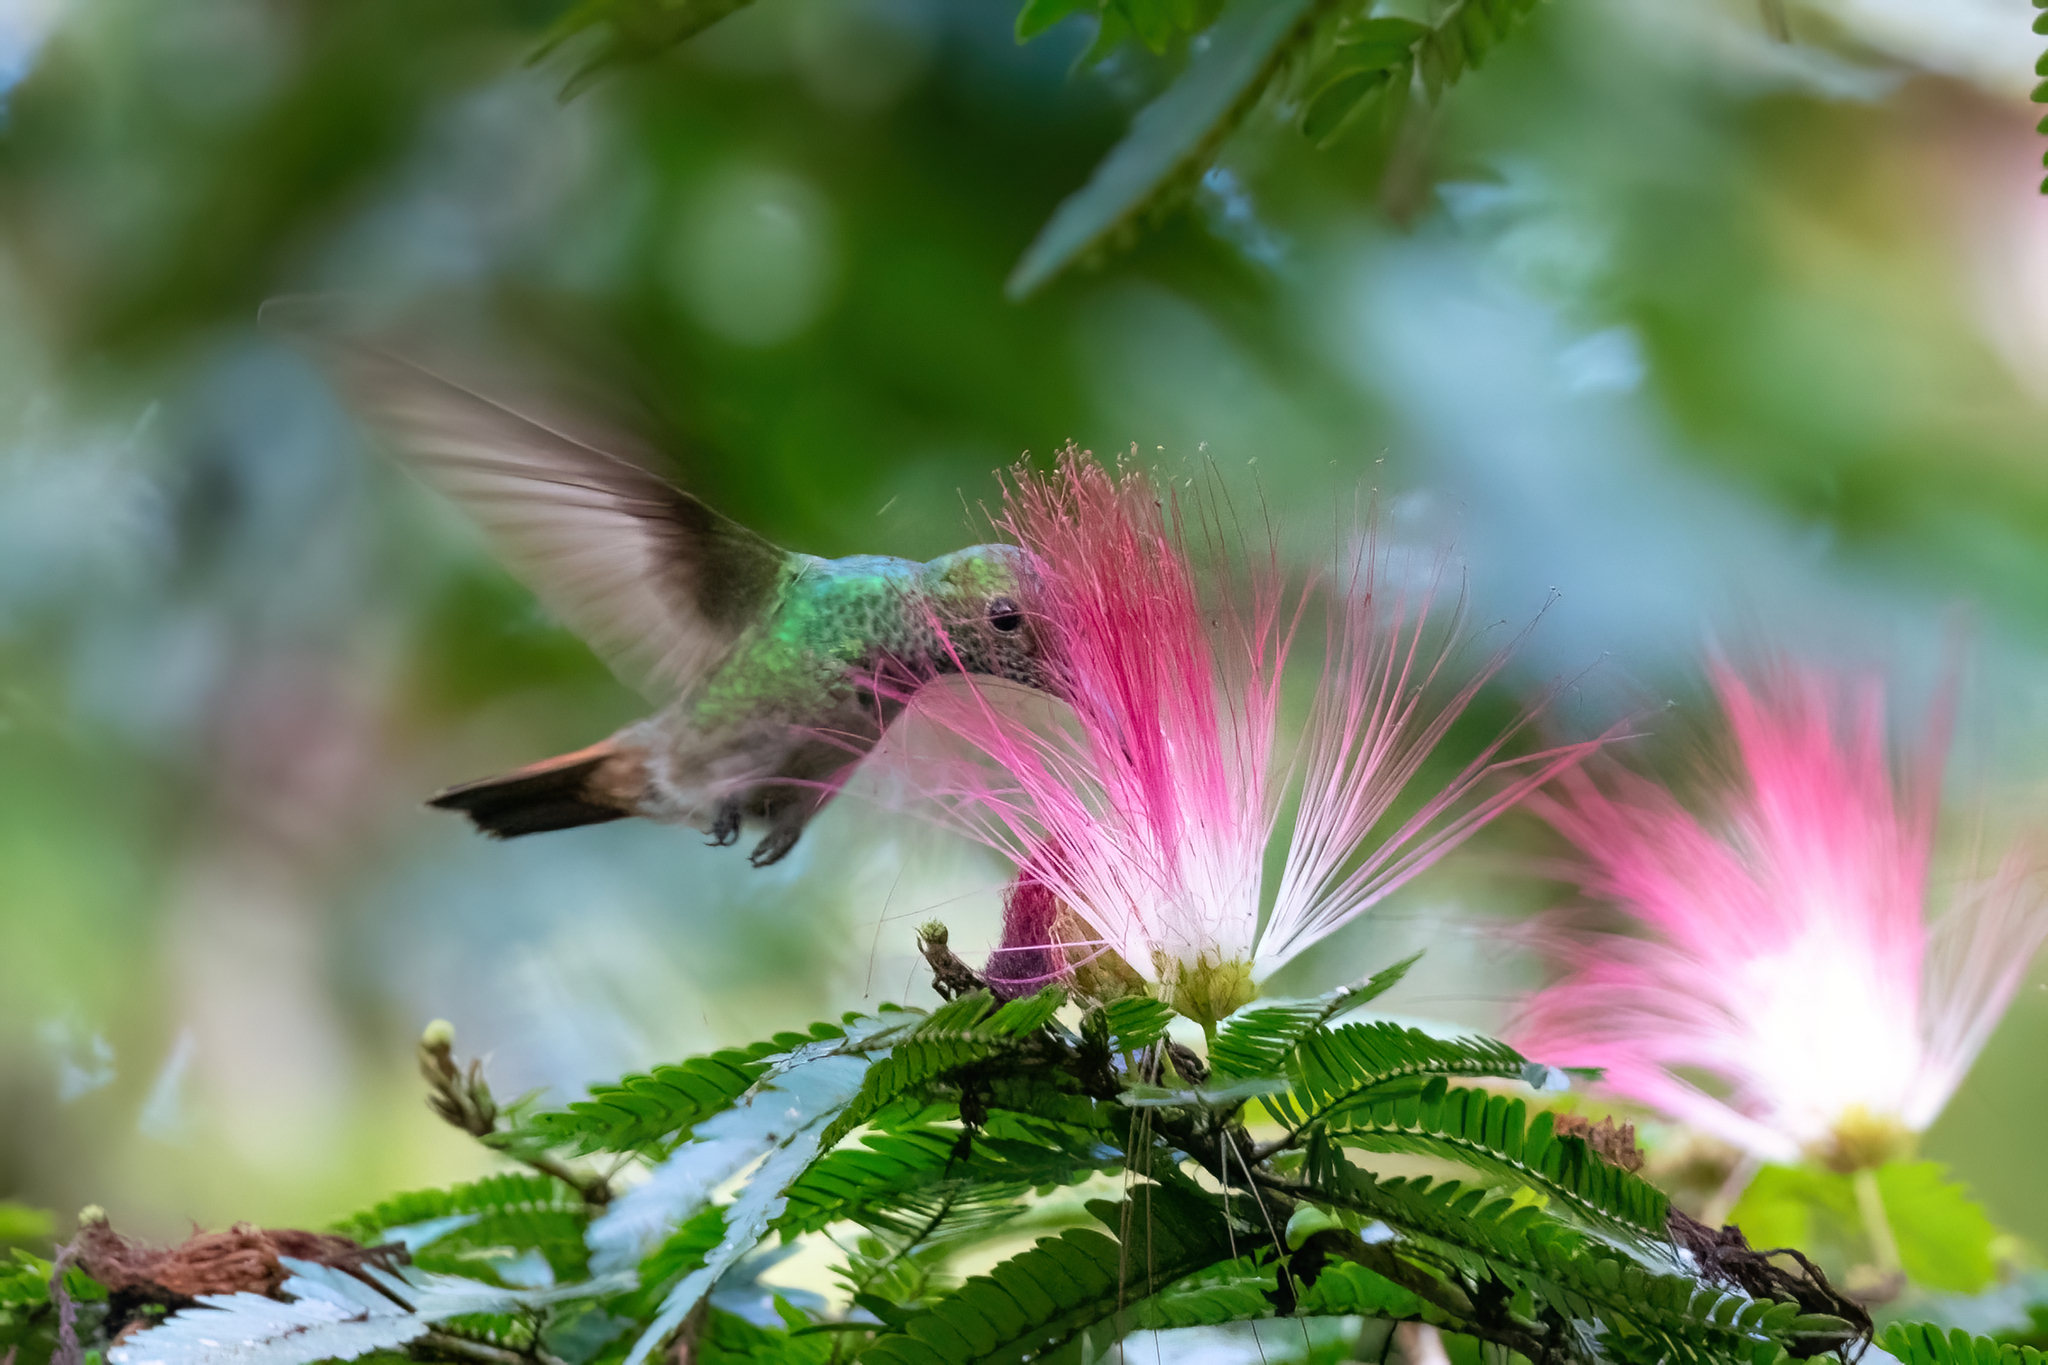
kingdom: Animalia
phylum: Chordata
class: Aves
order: Apodiformes
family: Trochilidae
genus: Amazilia
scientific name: Amazilia tzacatl
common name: Rufous-tailed hummingbird
